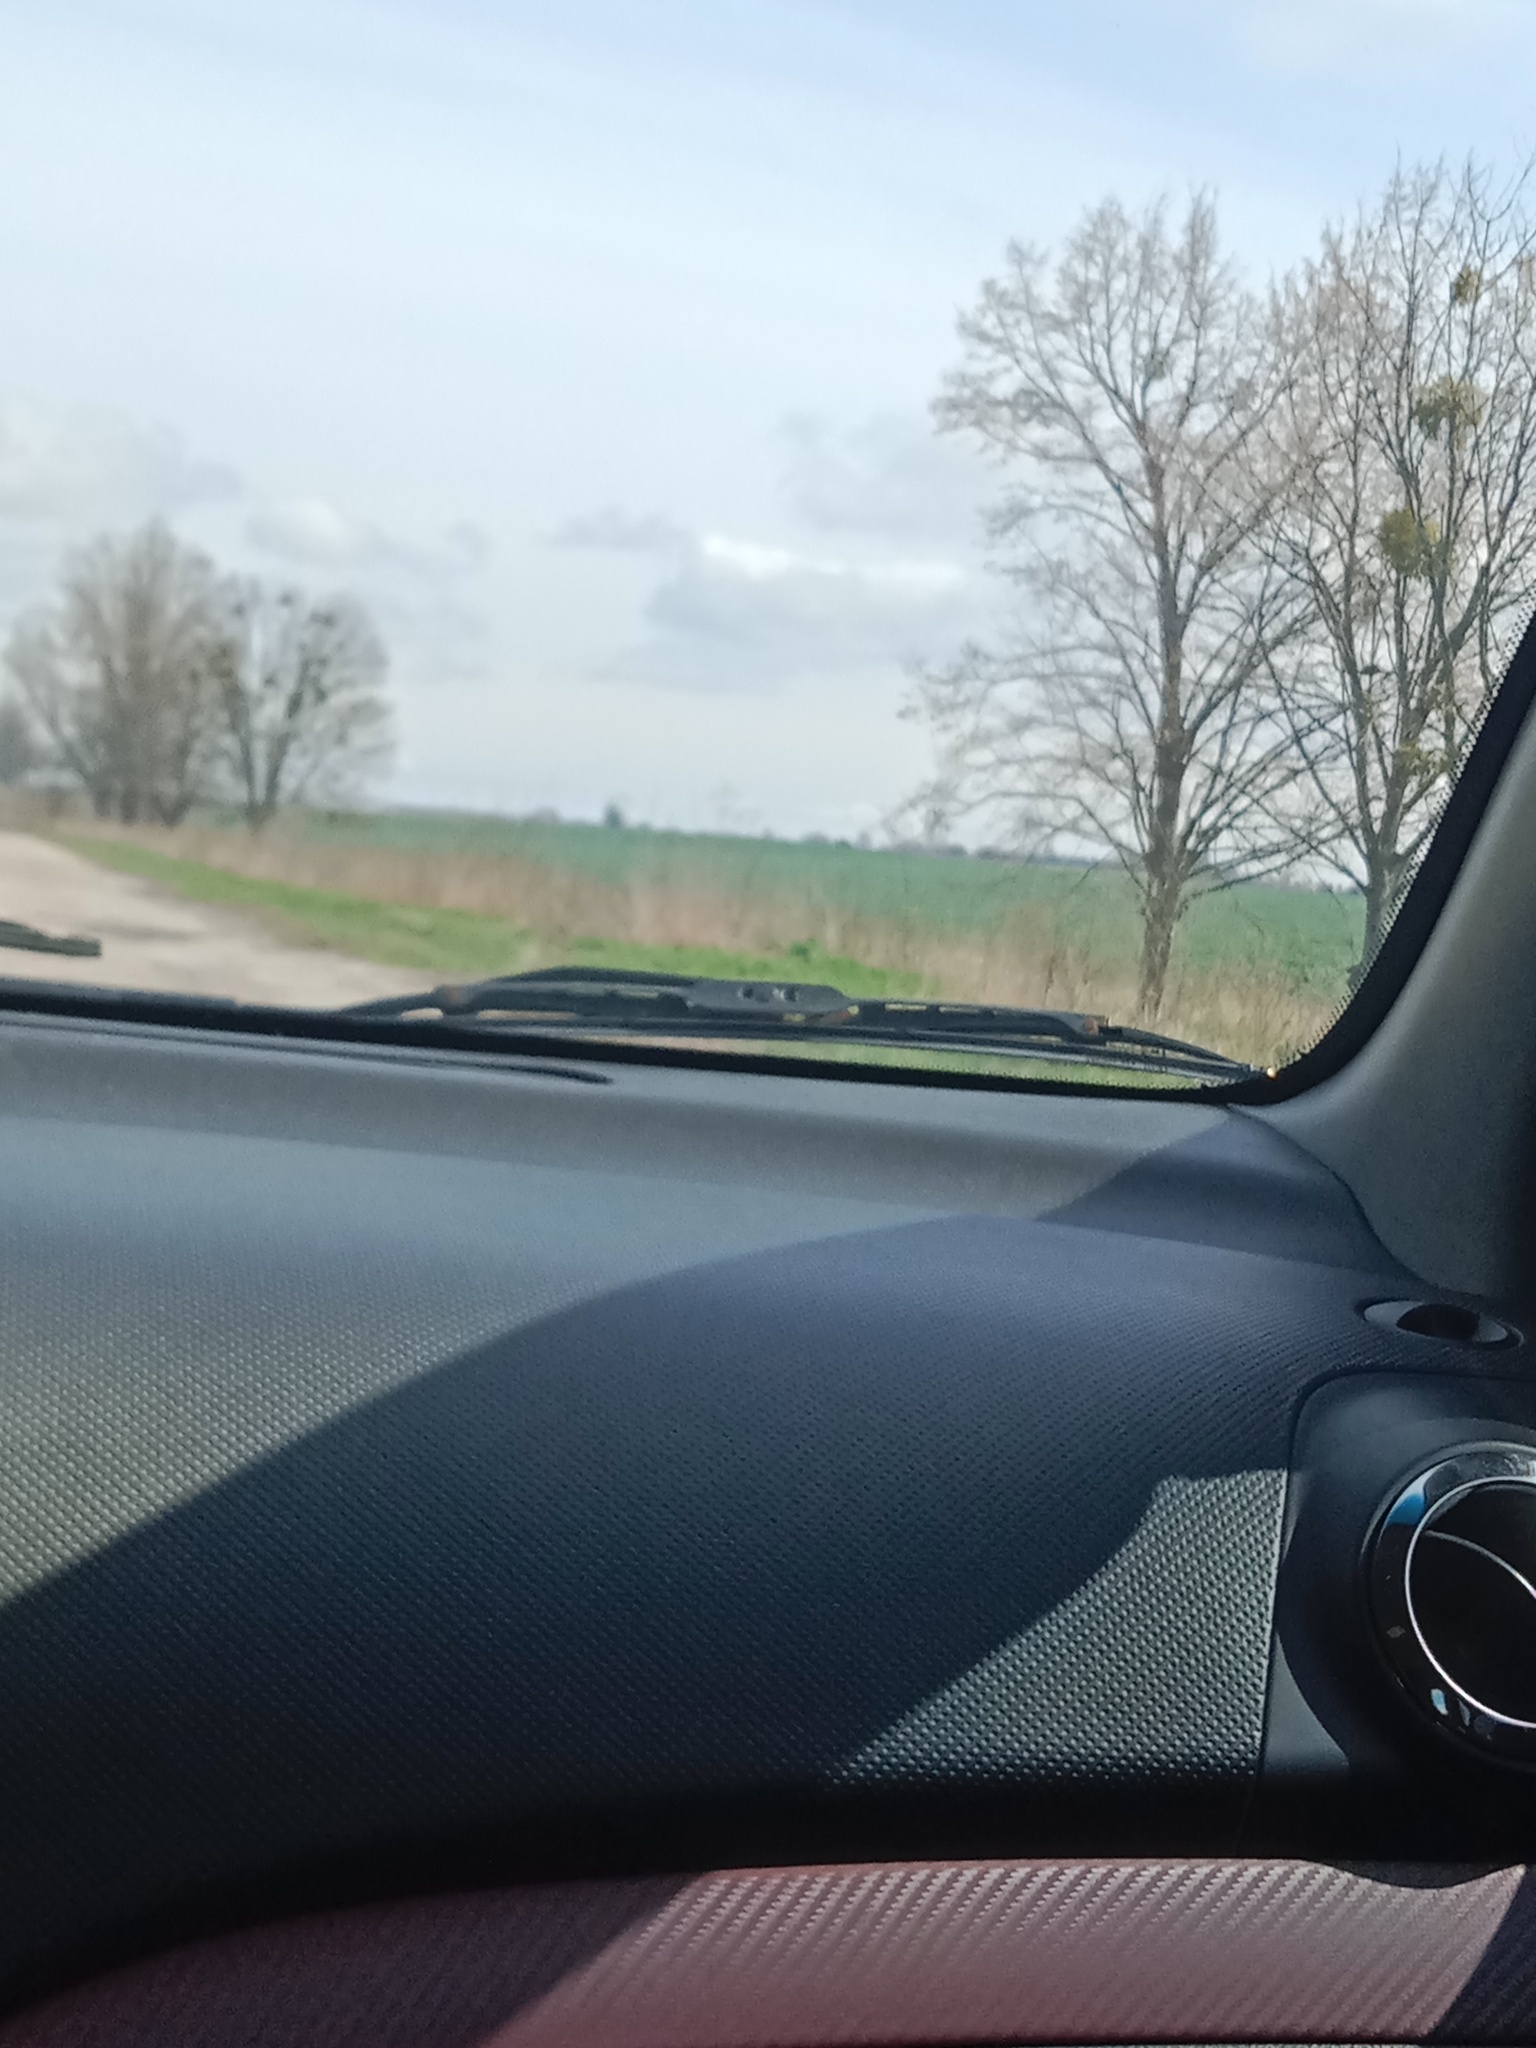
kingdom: Plantae
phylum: Tracheophyta
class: Magnoliopsida
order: Santalales
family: Viscaceae
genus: Viscum
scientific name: Viscum album
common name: Mistletoe
